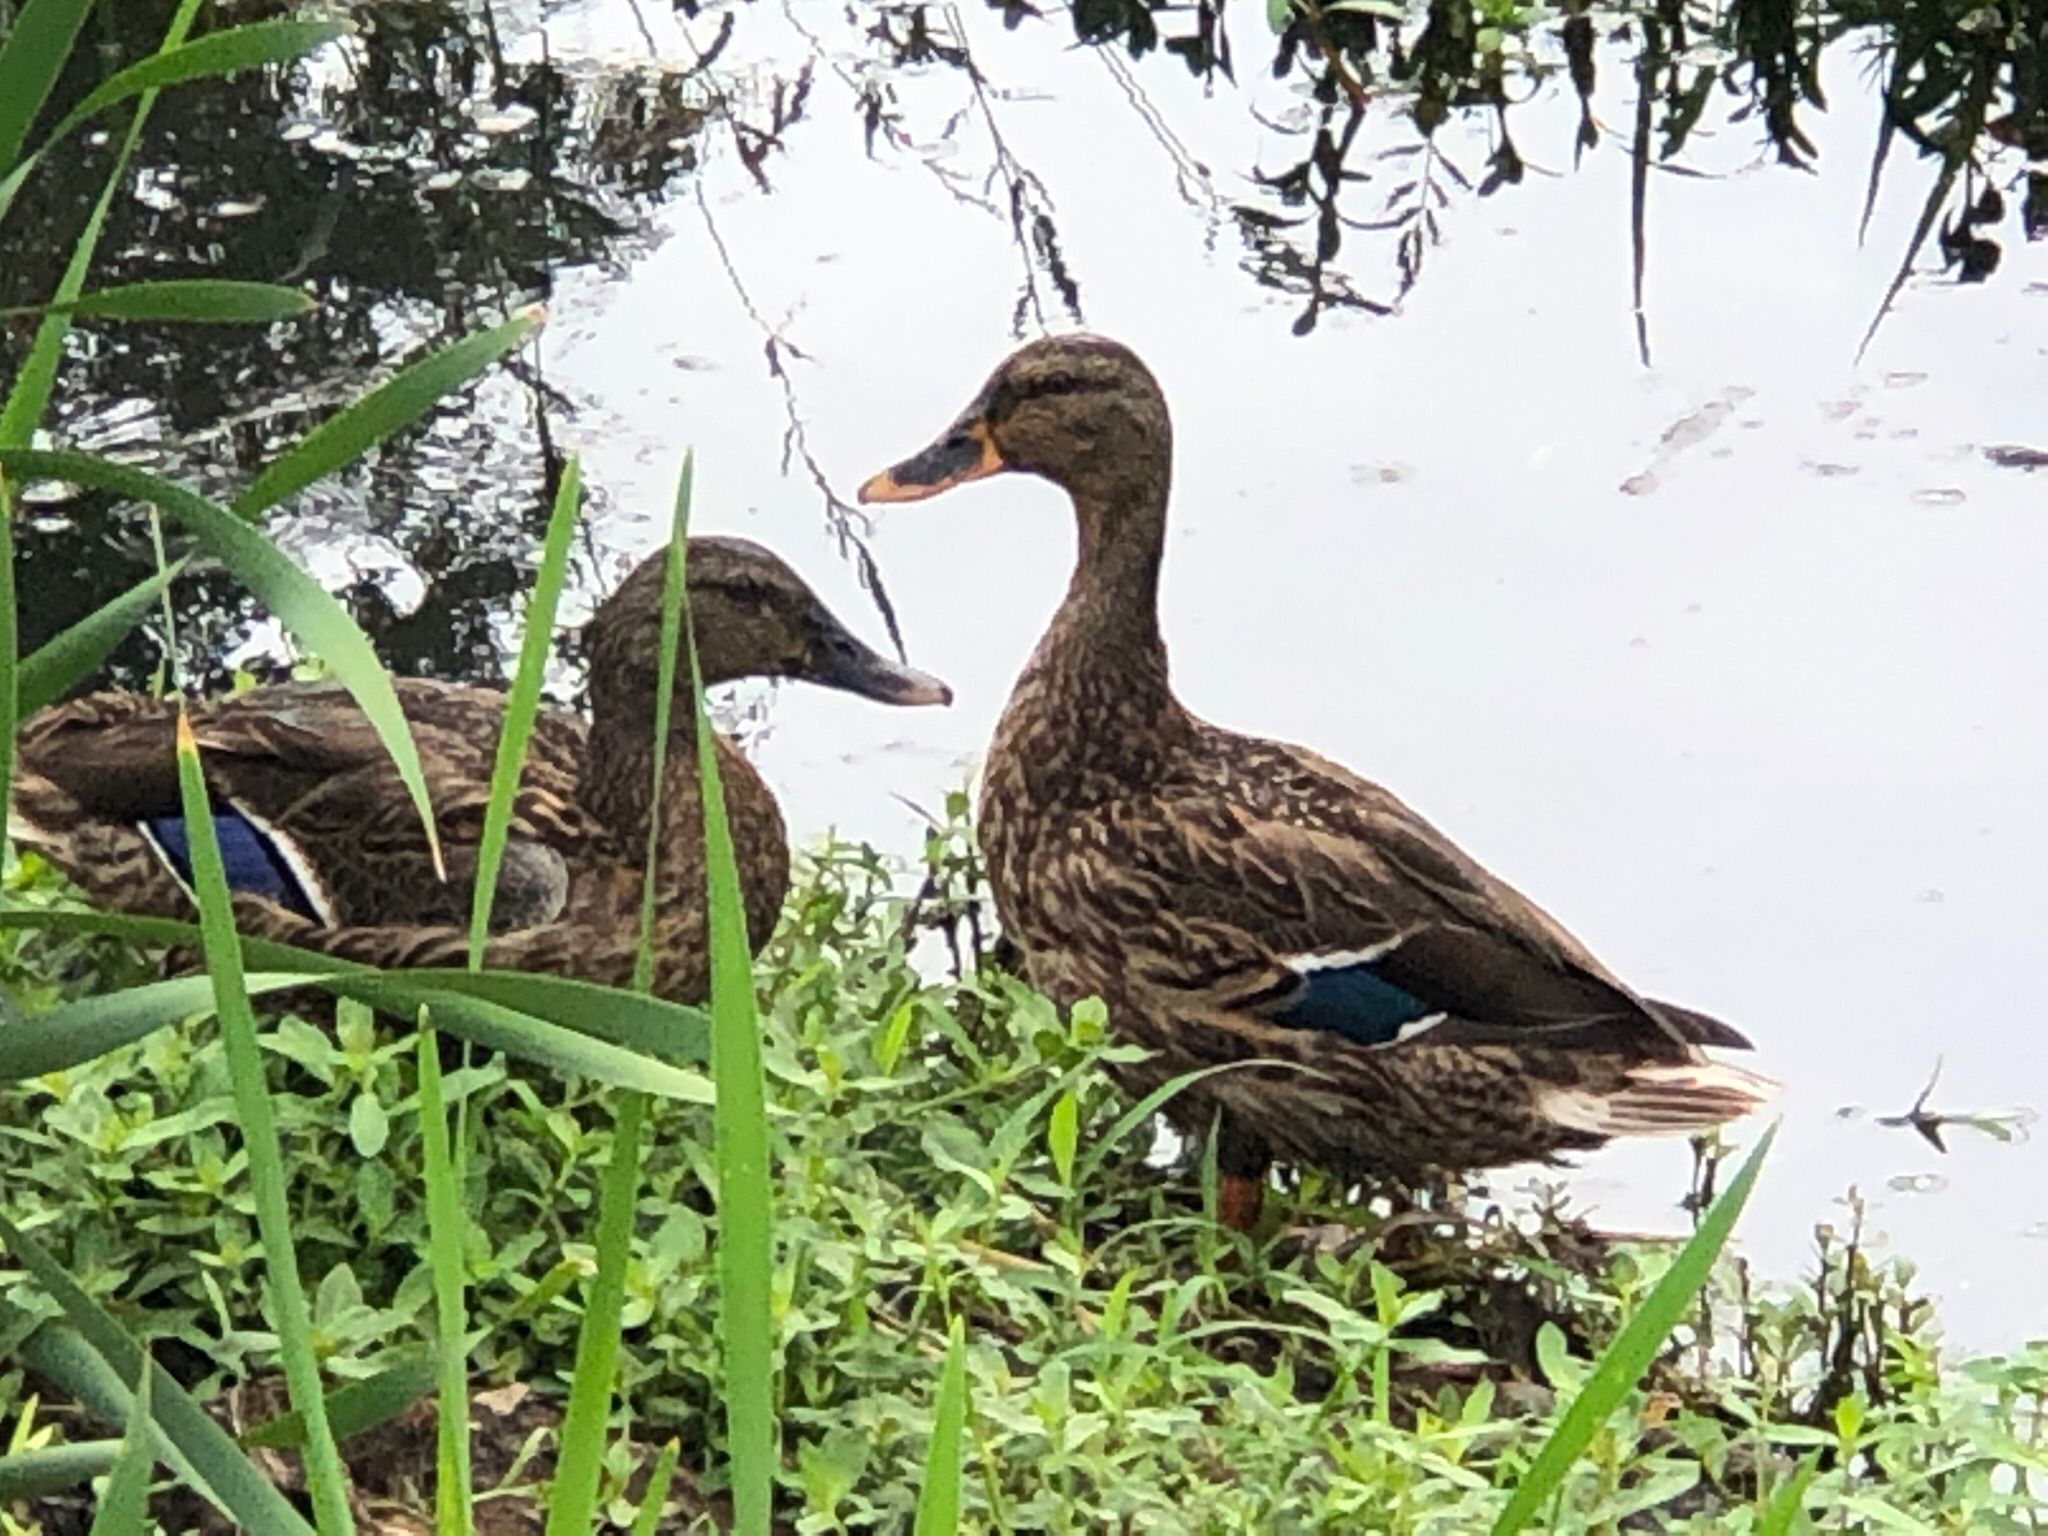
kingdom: Animalia
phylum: Chordata
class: Aves
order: Anseriformes
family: Anatidae
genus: Anas
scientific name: Anas platyrhynchos
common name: Mallard
